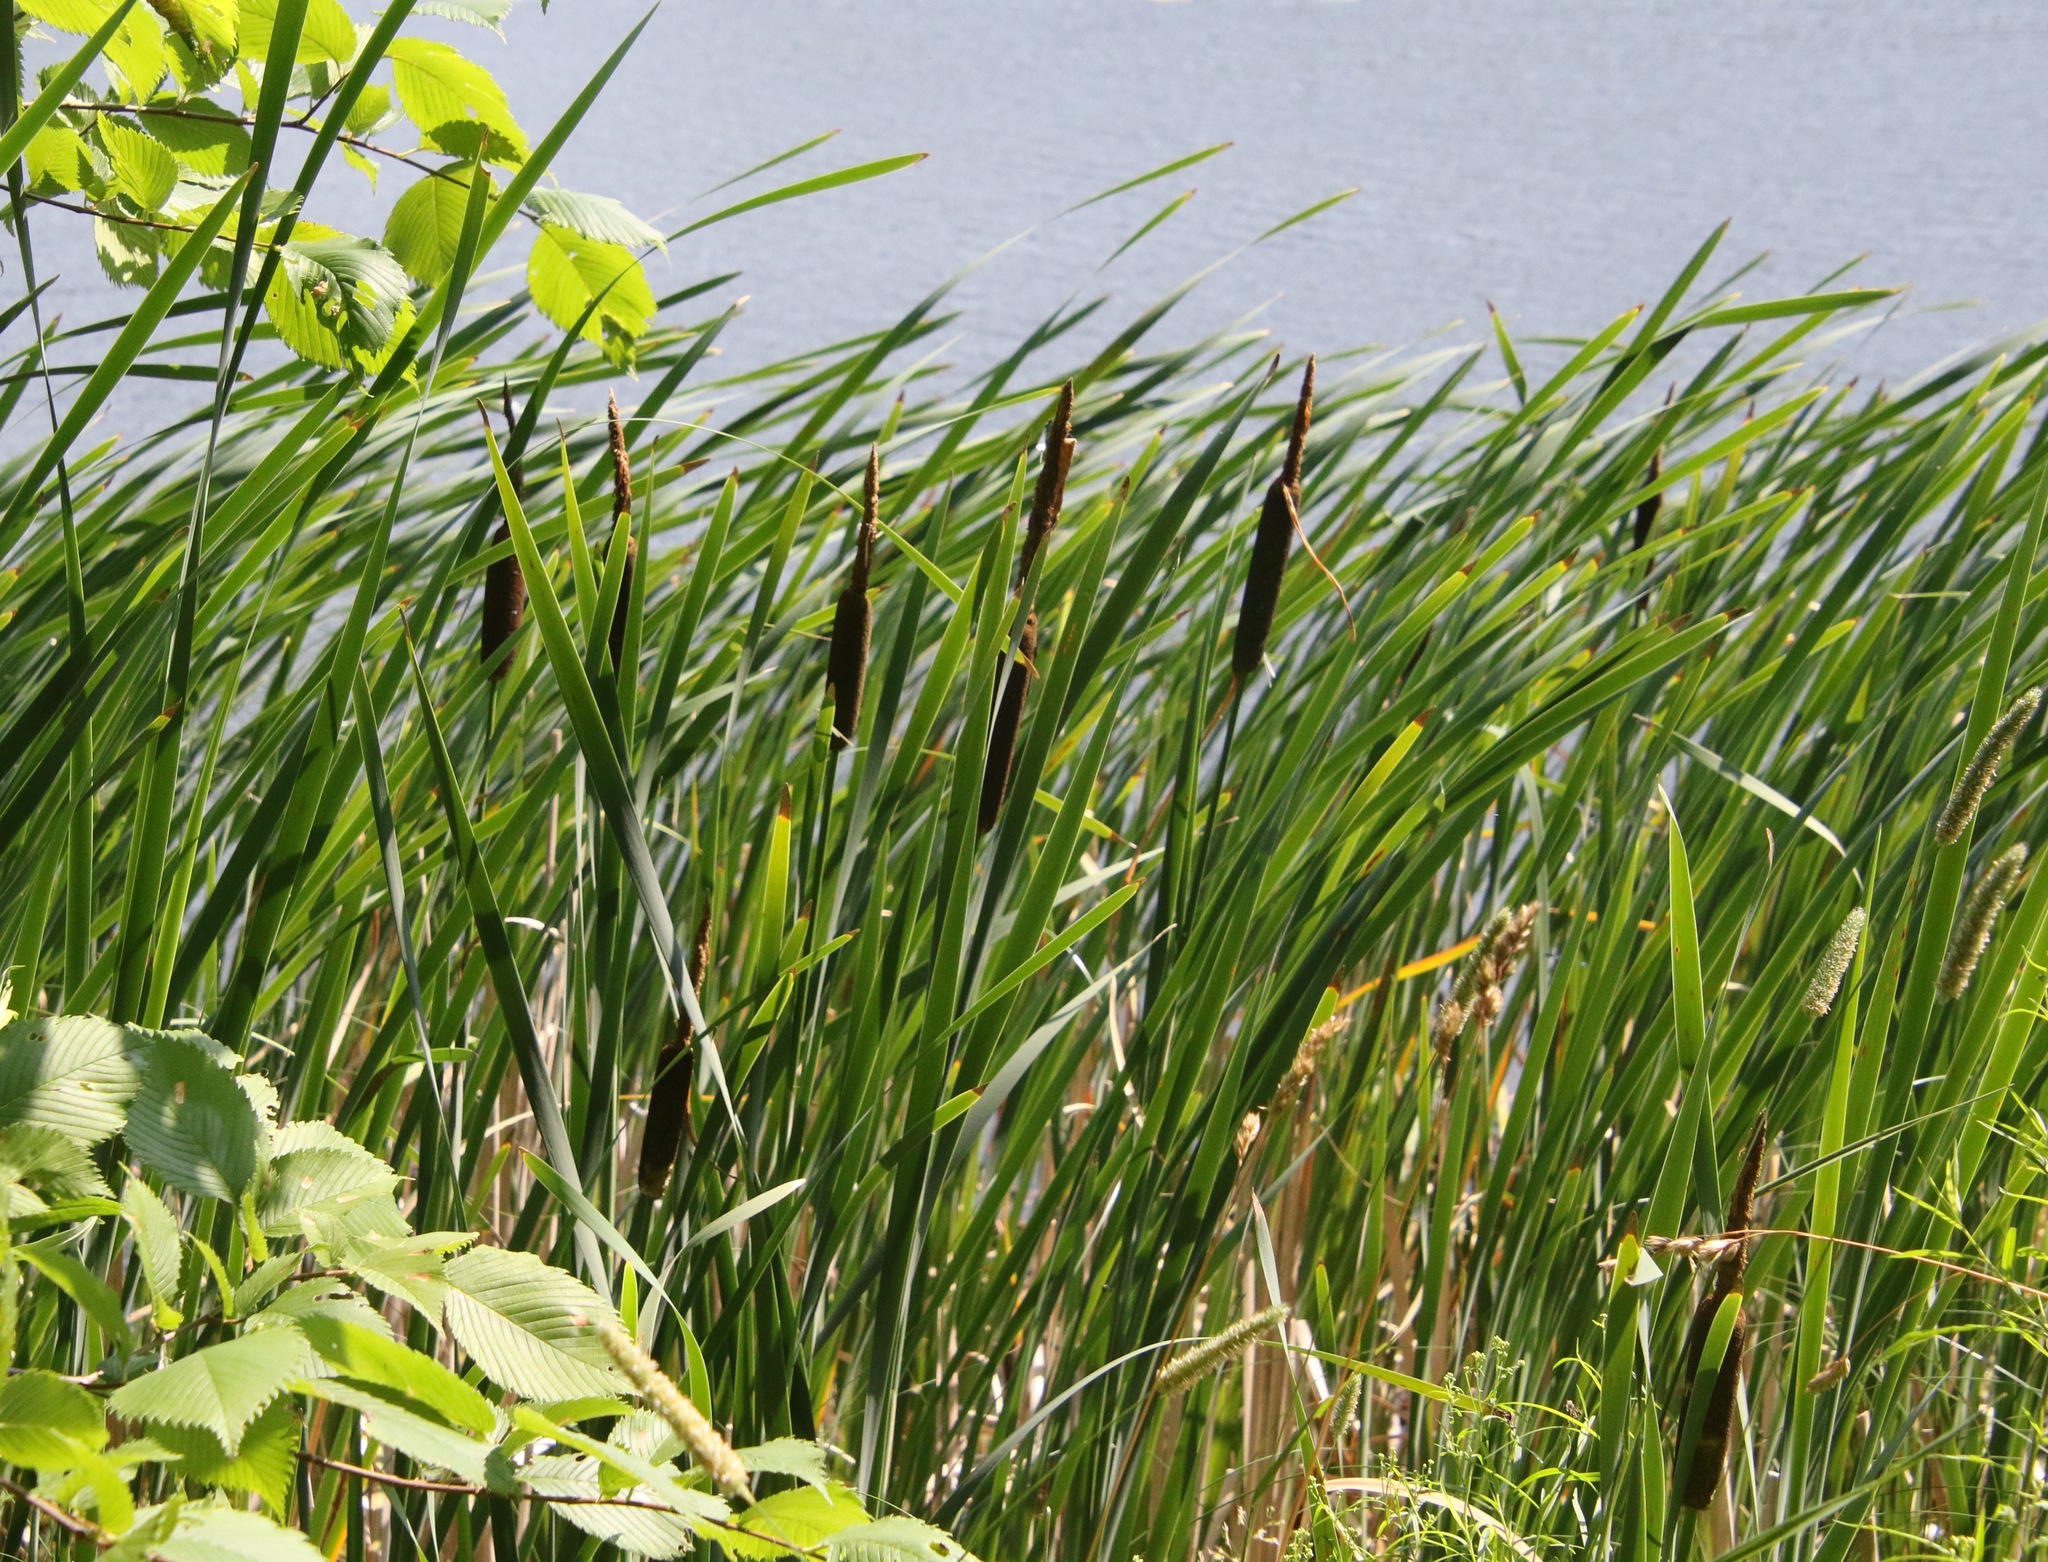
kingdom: Plantae
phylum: Tracheophyta
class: Liliopsida
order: Poales
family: Typhaceae
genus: Typha
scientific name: Typha latifolia
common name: Broadleaf cattail
